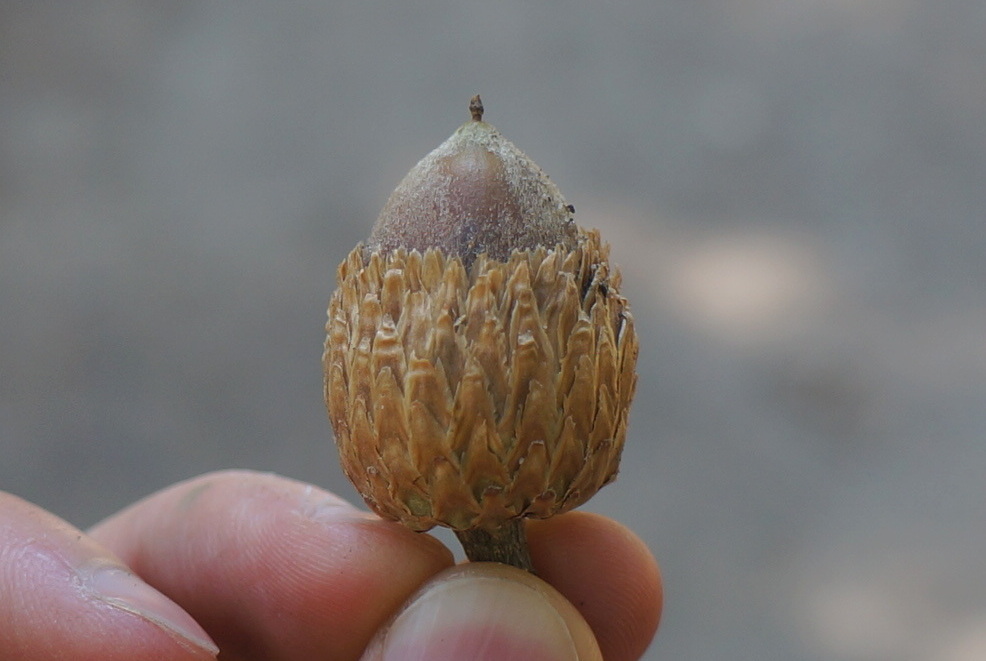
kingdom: Plantae
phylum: Tracheophyta
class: Magnoliopsida
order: Fagales
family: Fagaceae
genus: Quercus
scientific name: Quercus kelloggii
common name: California black oak
